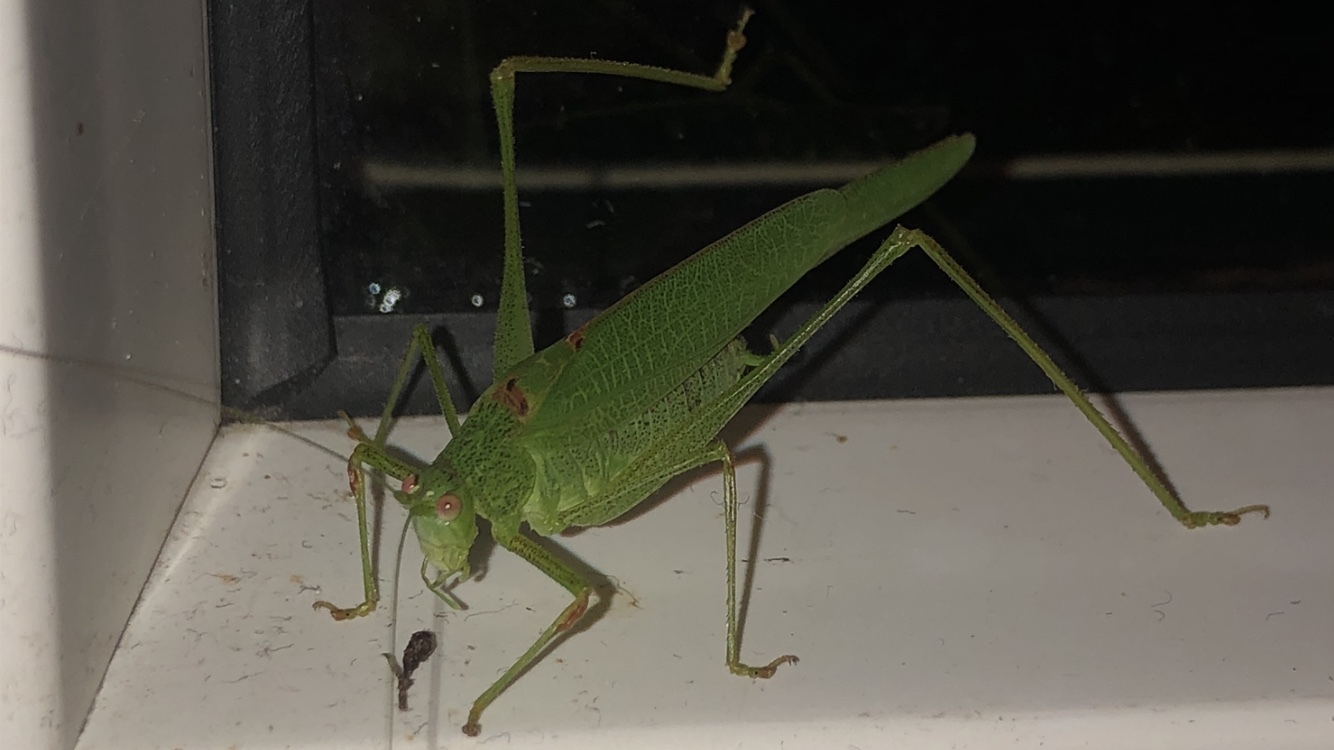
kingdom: Animalia
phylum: Arthropoda
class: Insecta
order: Orthoptera
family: Tettigoniidae
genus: Phaneroptera
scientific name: Phaneroptera nana
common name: Southern sickle bush-cricket
